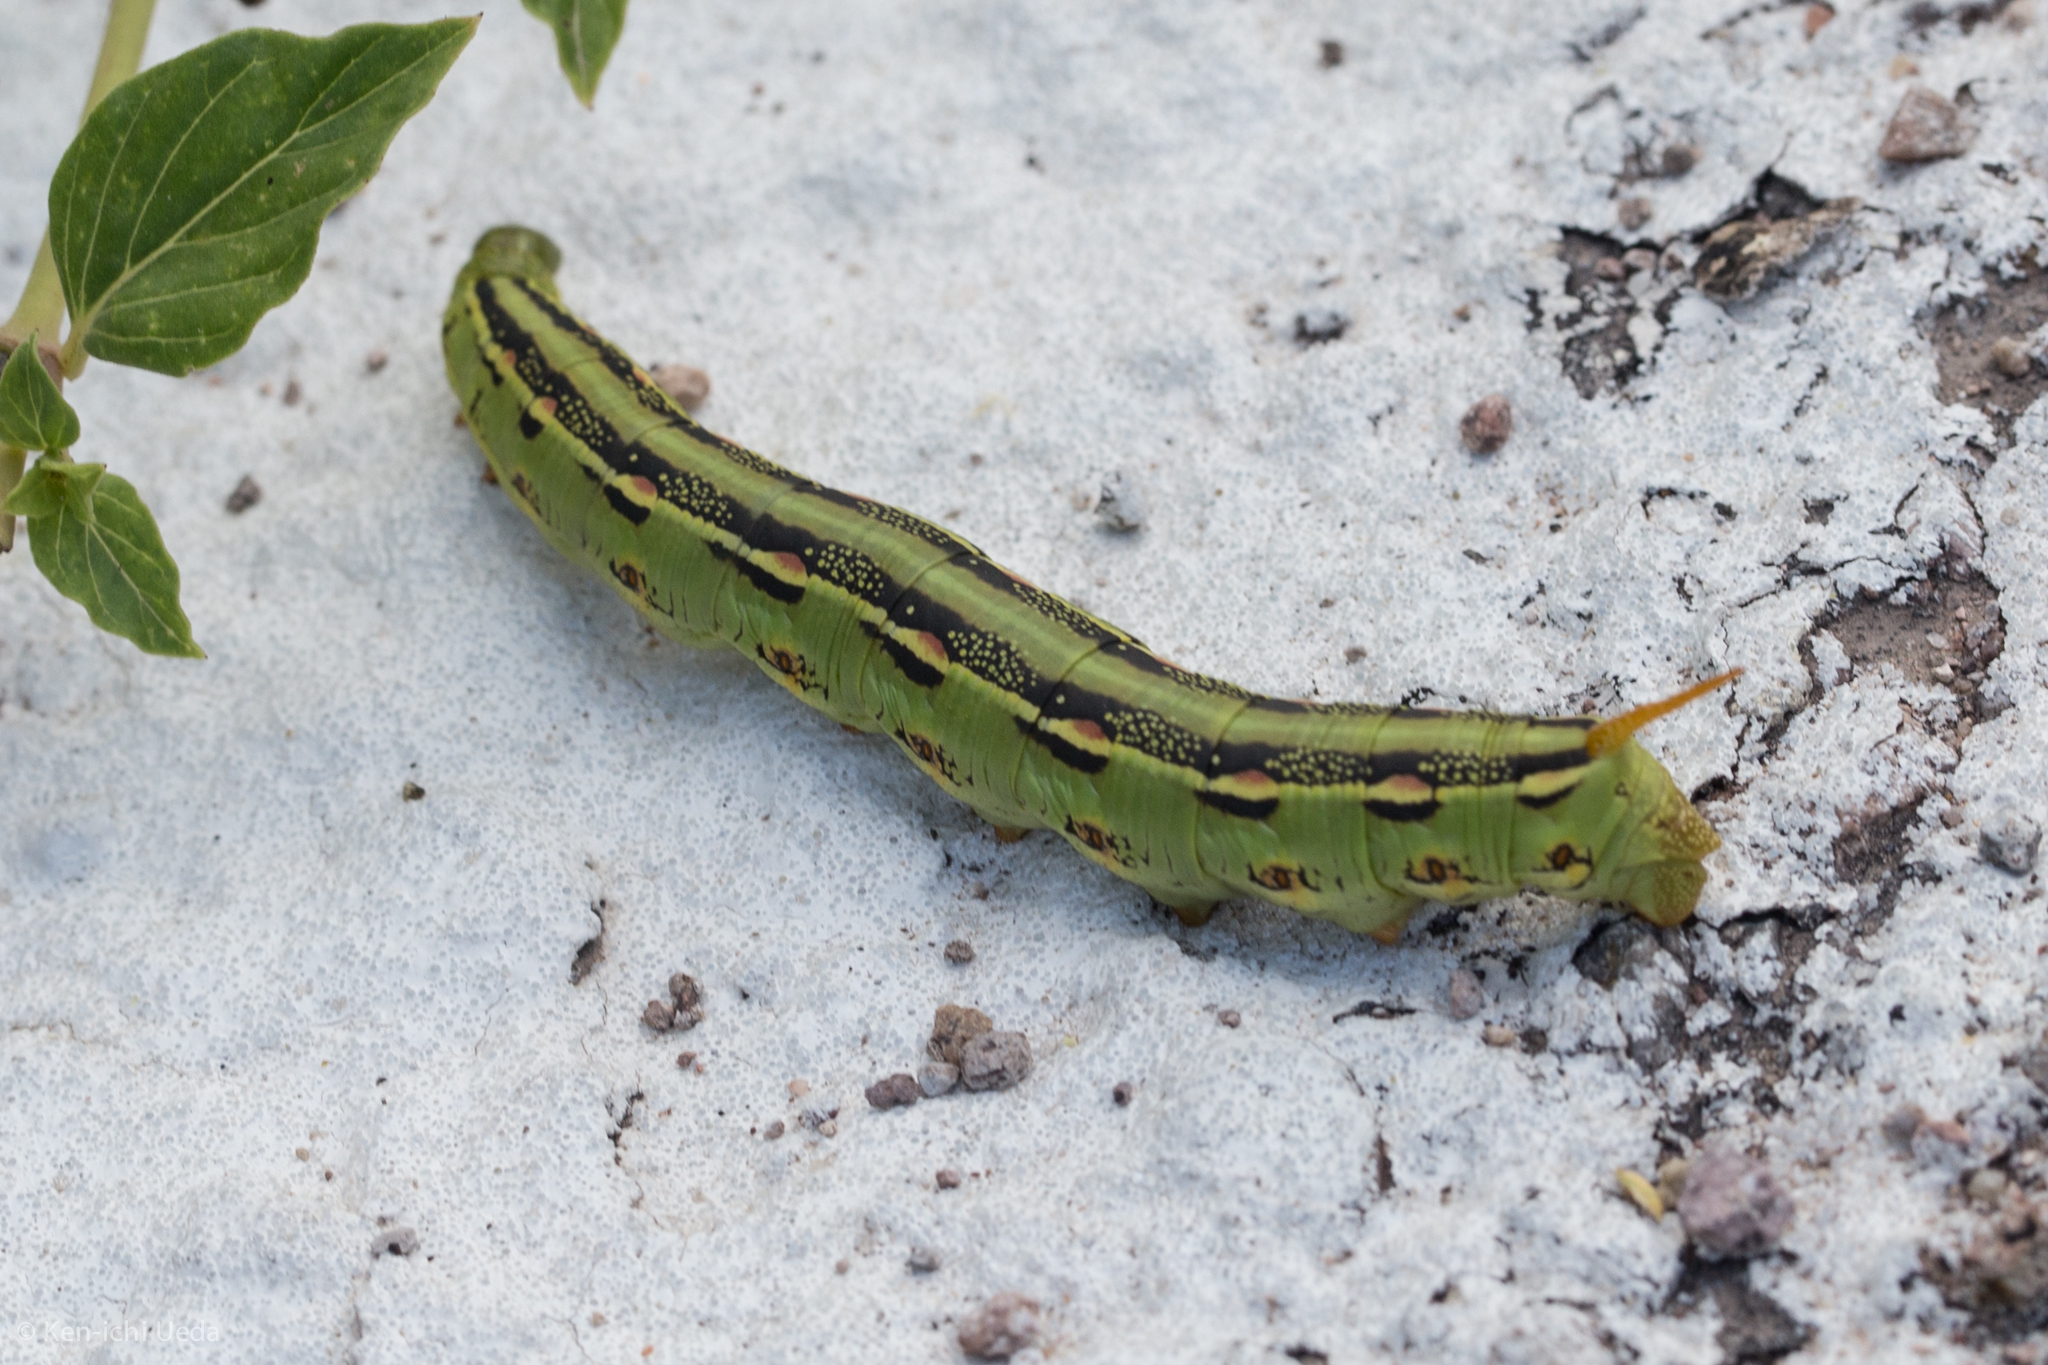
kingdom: Animalia
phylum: Arthropoda
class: Insecta
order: Lepidoptera
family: Sphingidae
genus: Hyles
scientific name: Hyles lineata
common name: White-lined sphinx
